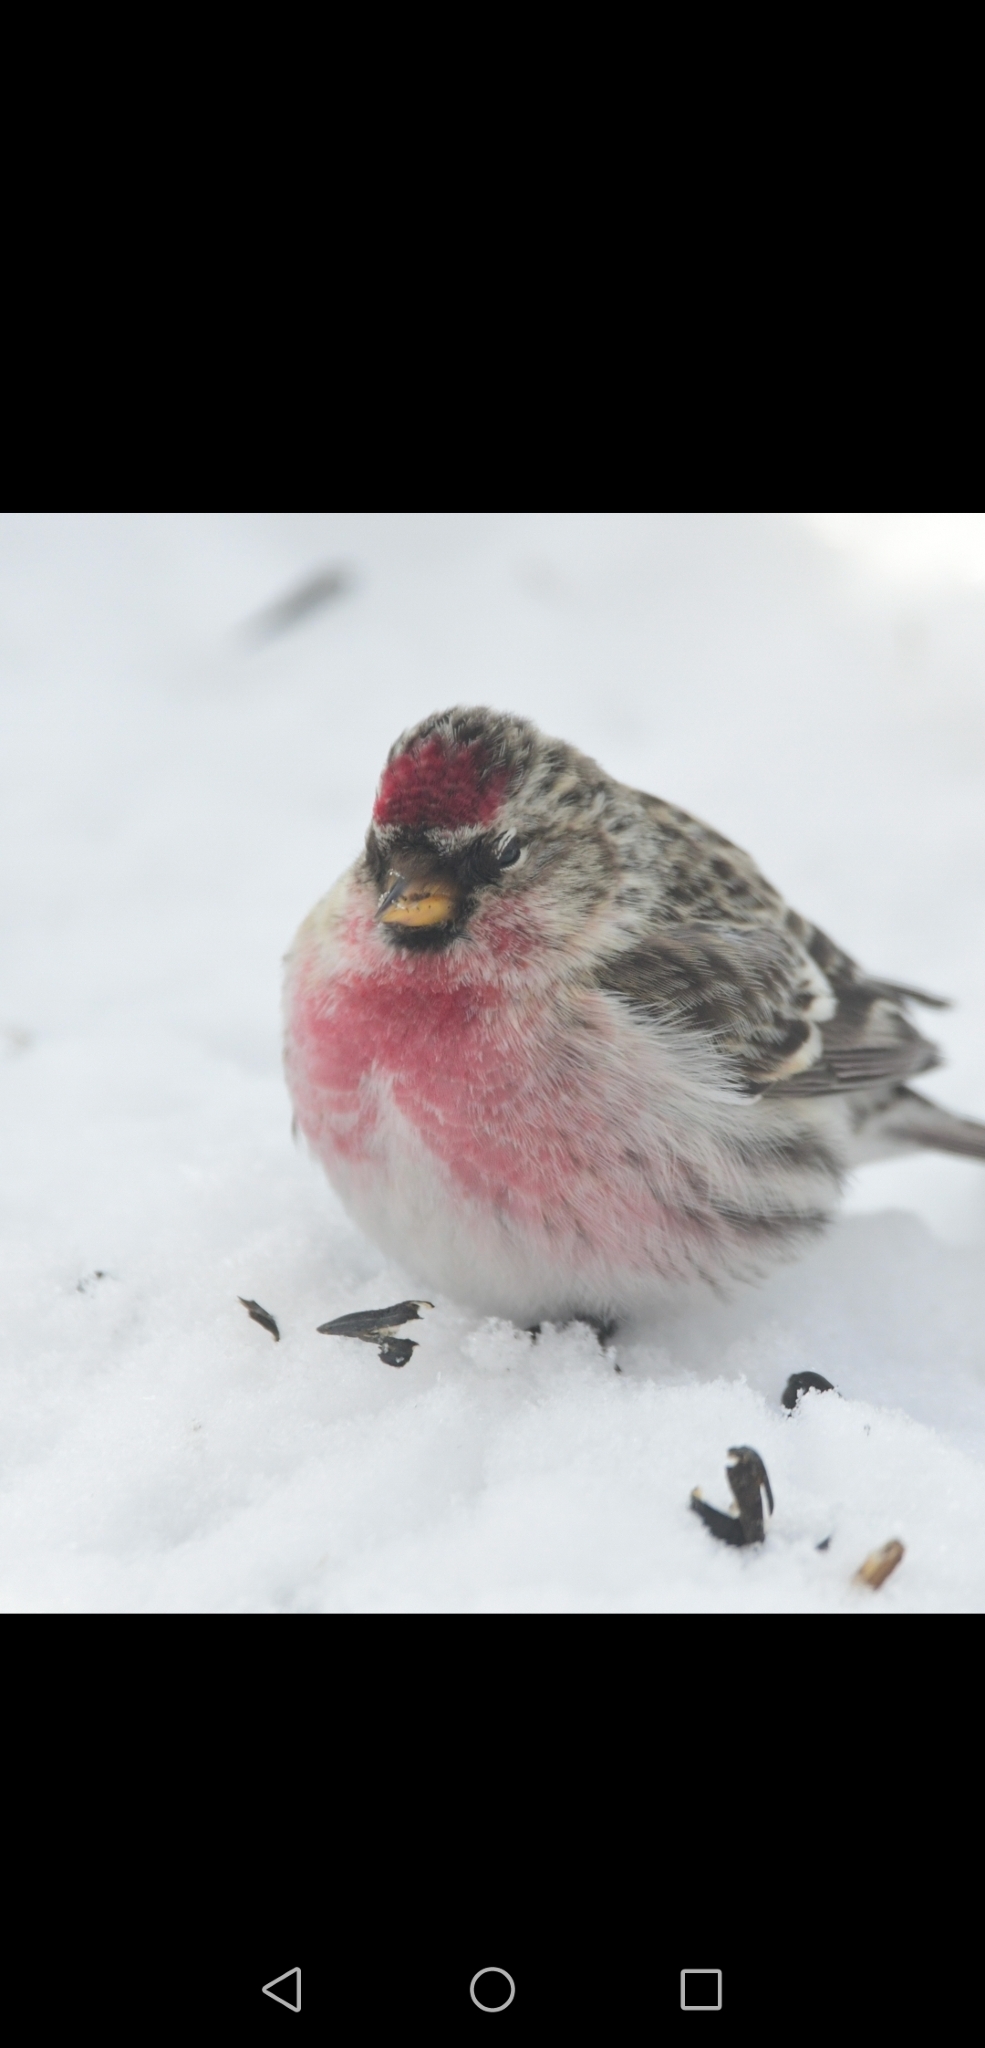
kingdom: Animalia
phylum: Chordata
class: Aves
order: Passeriformes
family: Fringillidae
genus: Acanthis
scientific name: Acanthis flammea
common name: Common redpoll
